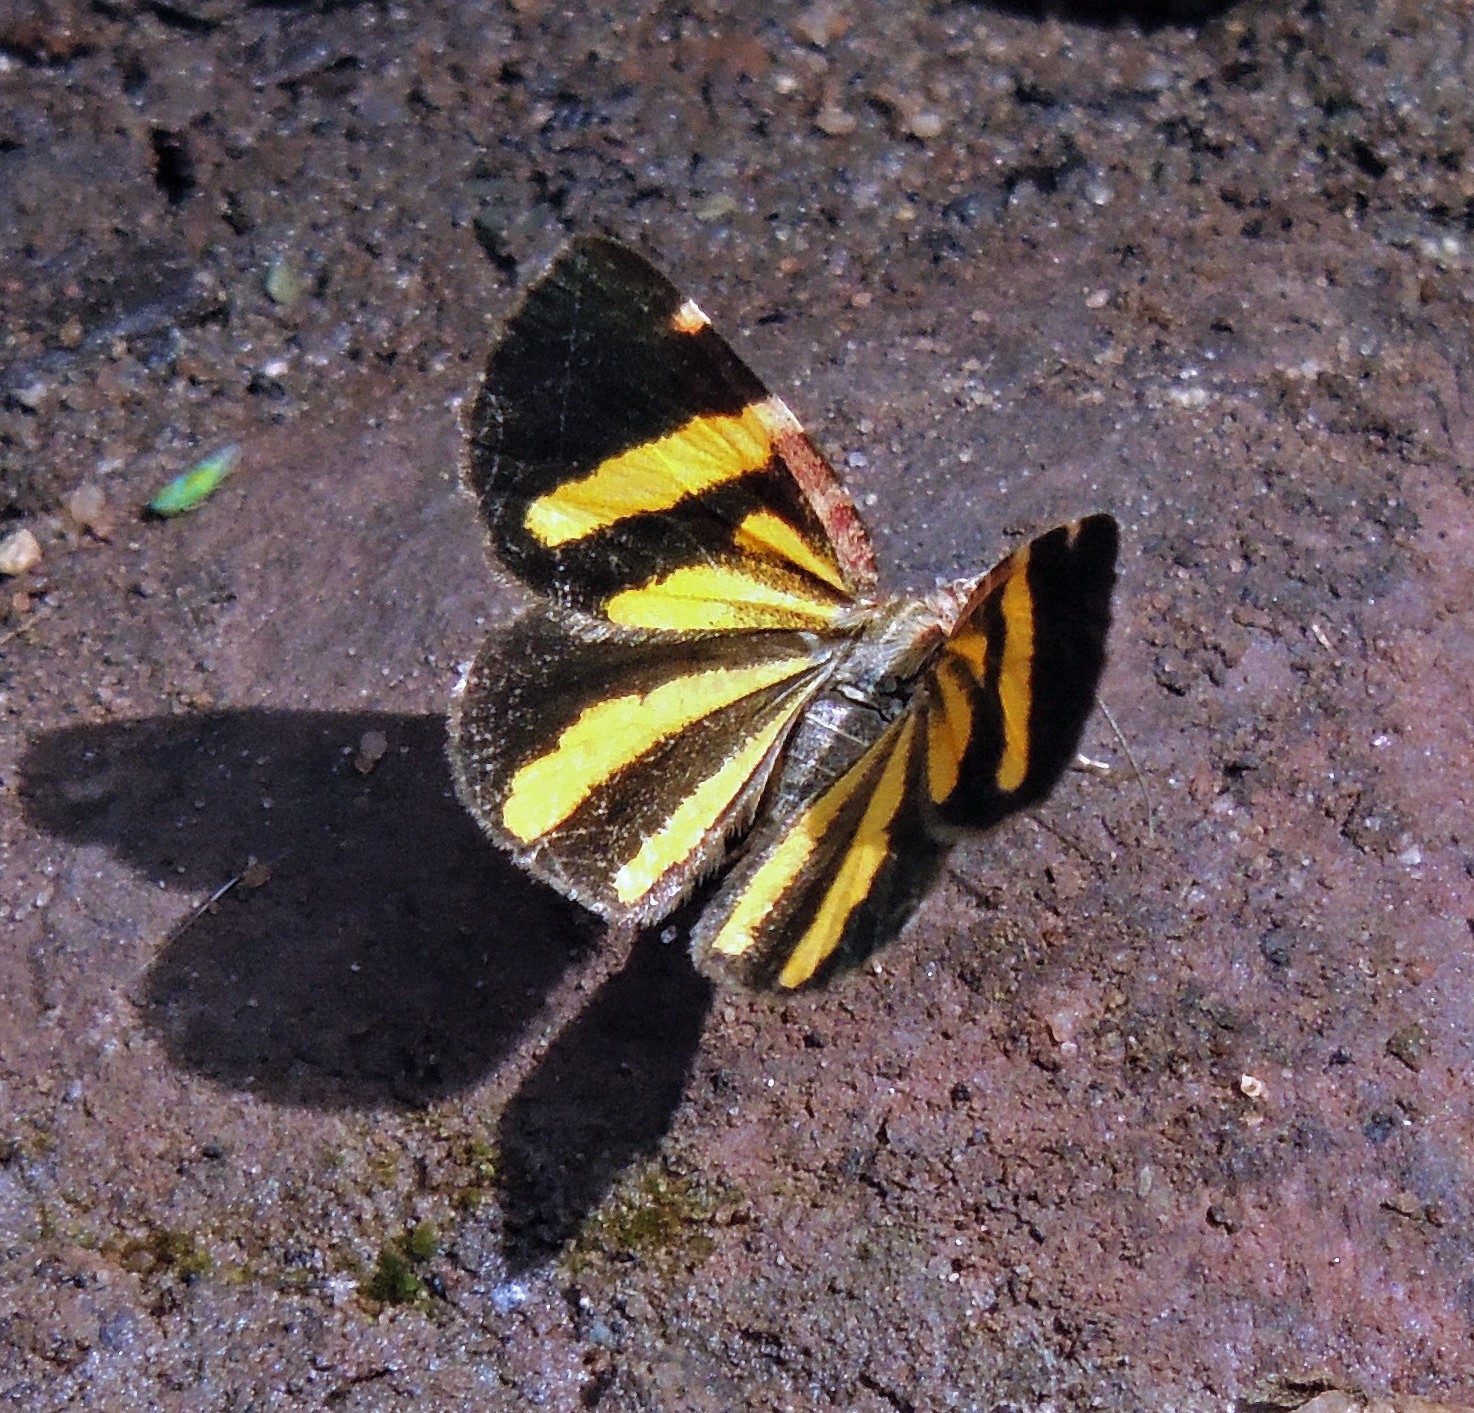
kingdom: Animalia
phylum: Arthropoda
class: Insecta
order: Lepidoptera
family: Geometridae
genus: Heterusia
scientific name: Heterusia quadruplicaria
